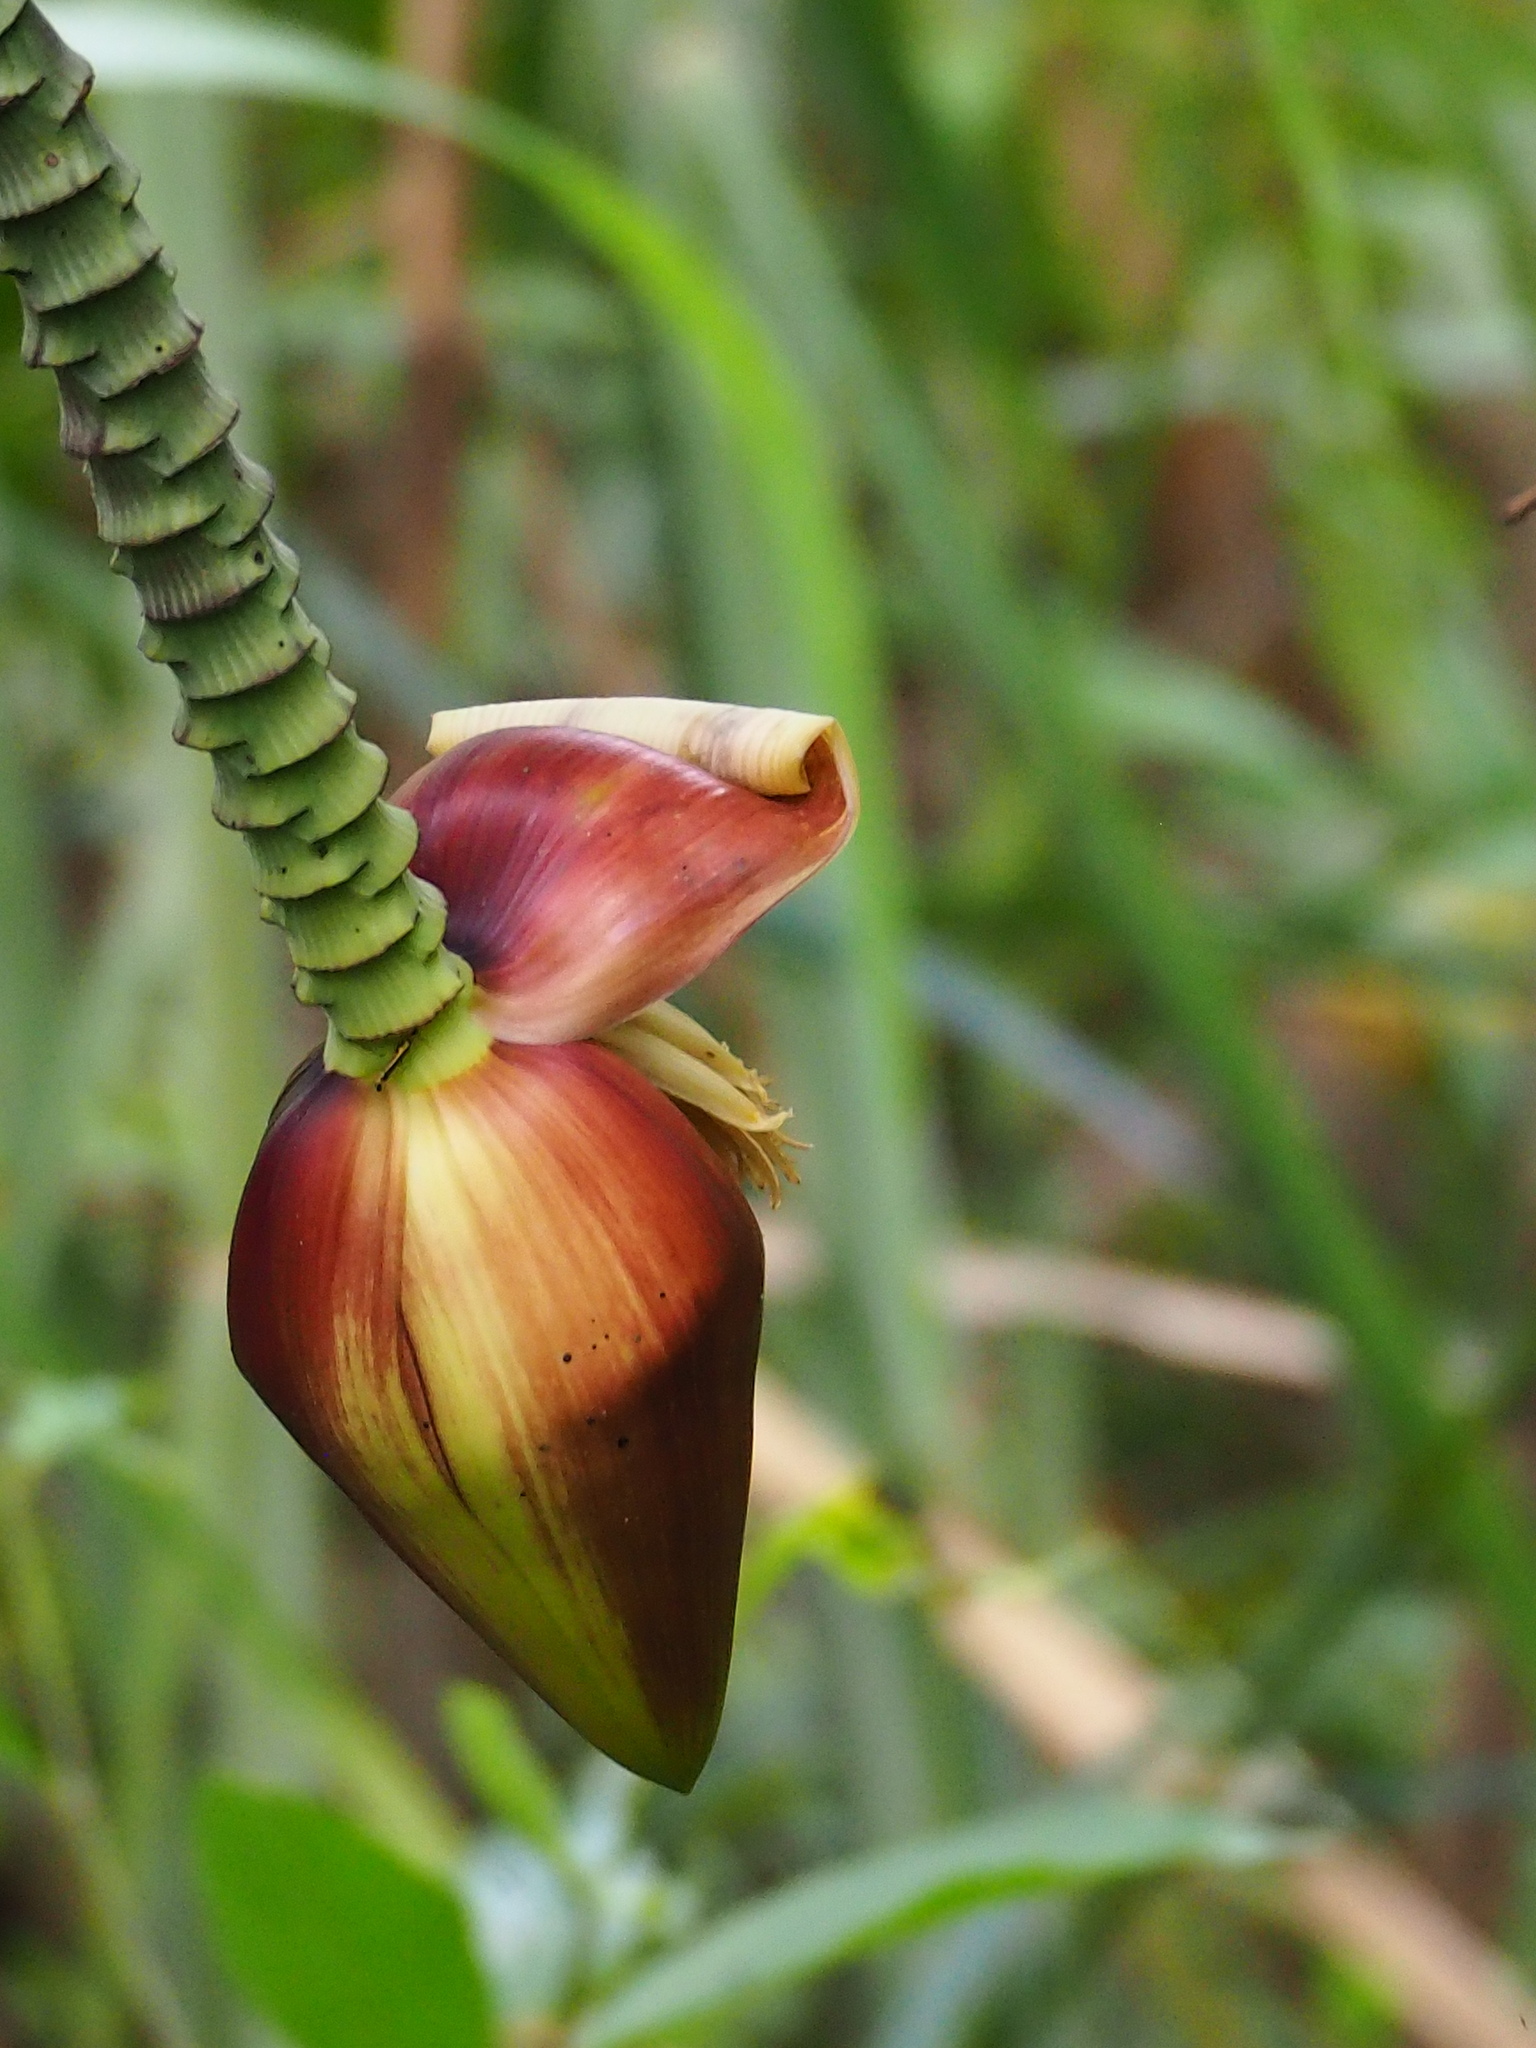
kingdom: Plantae
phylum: Tracheophyta
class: Liliopsida
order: Zingiberales
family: Musaceae
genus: Musa
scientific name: Musa itinerans
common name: Yunnan banana
